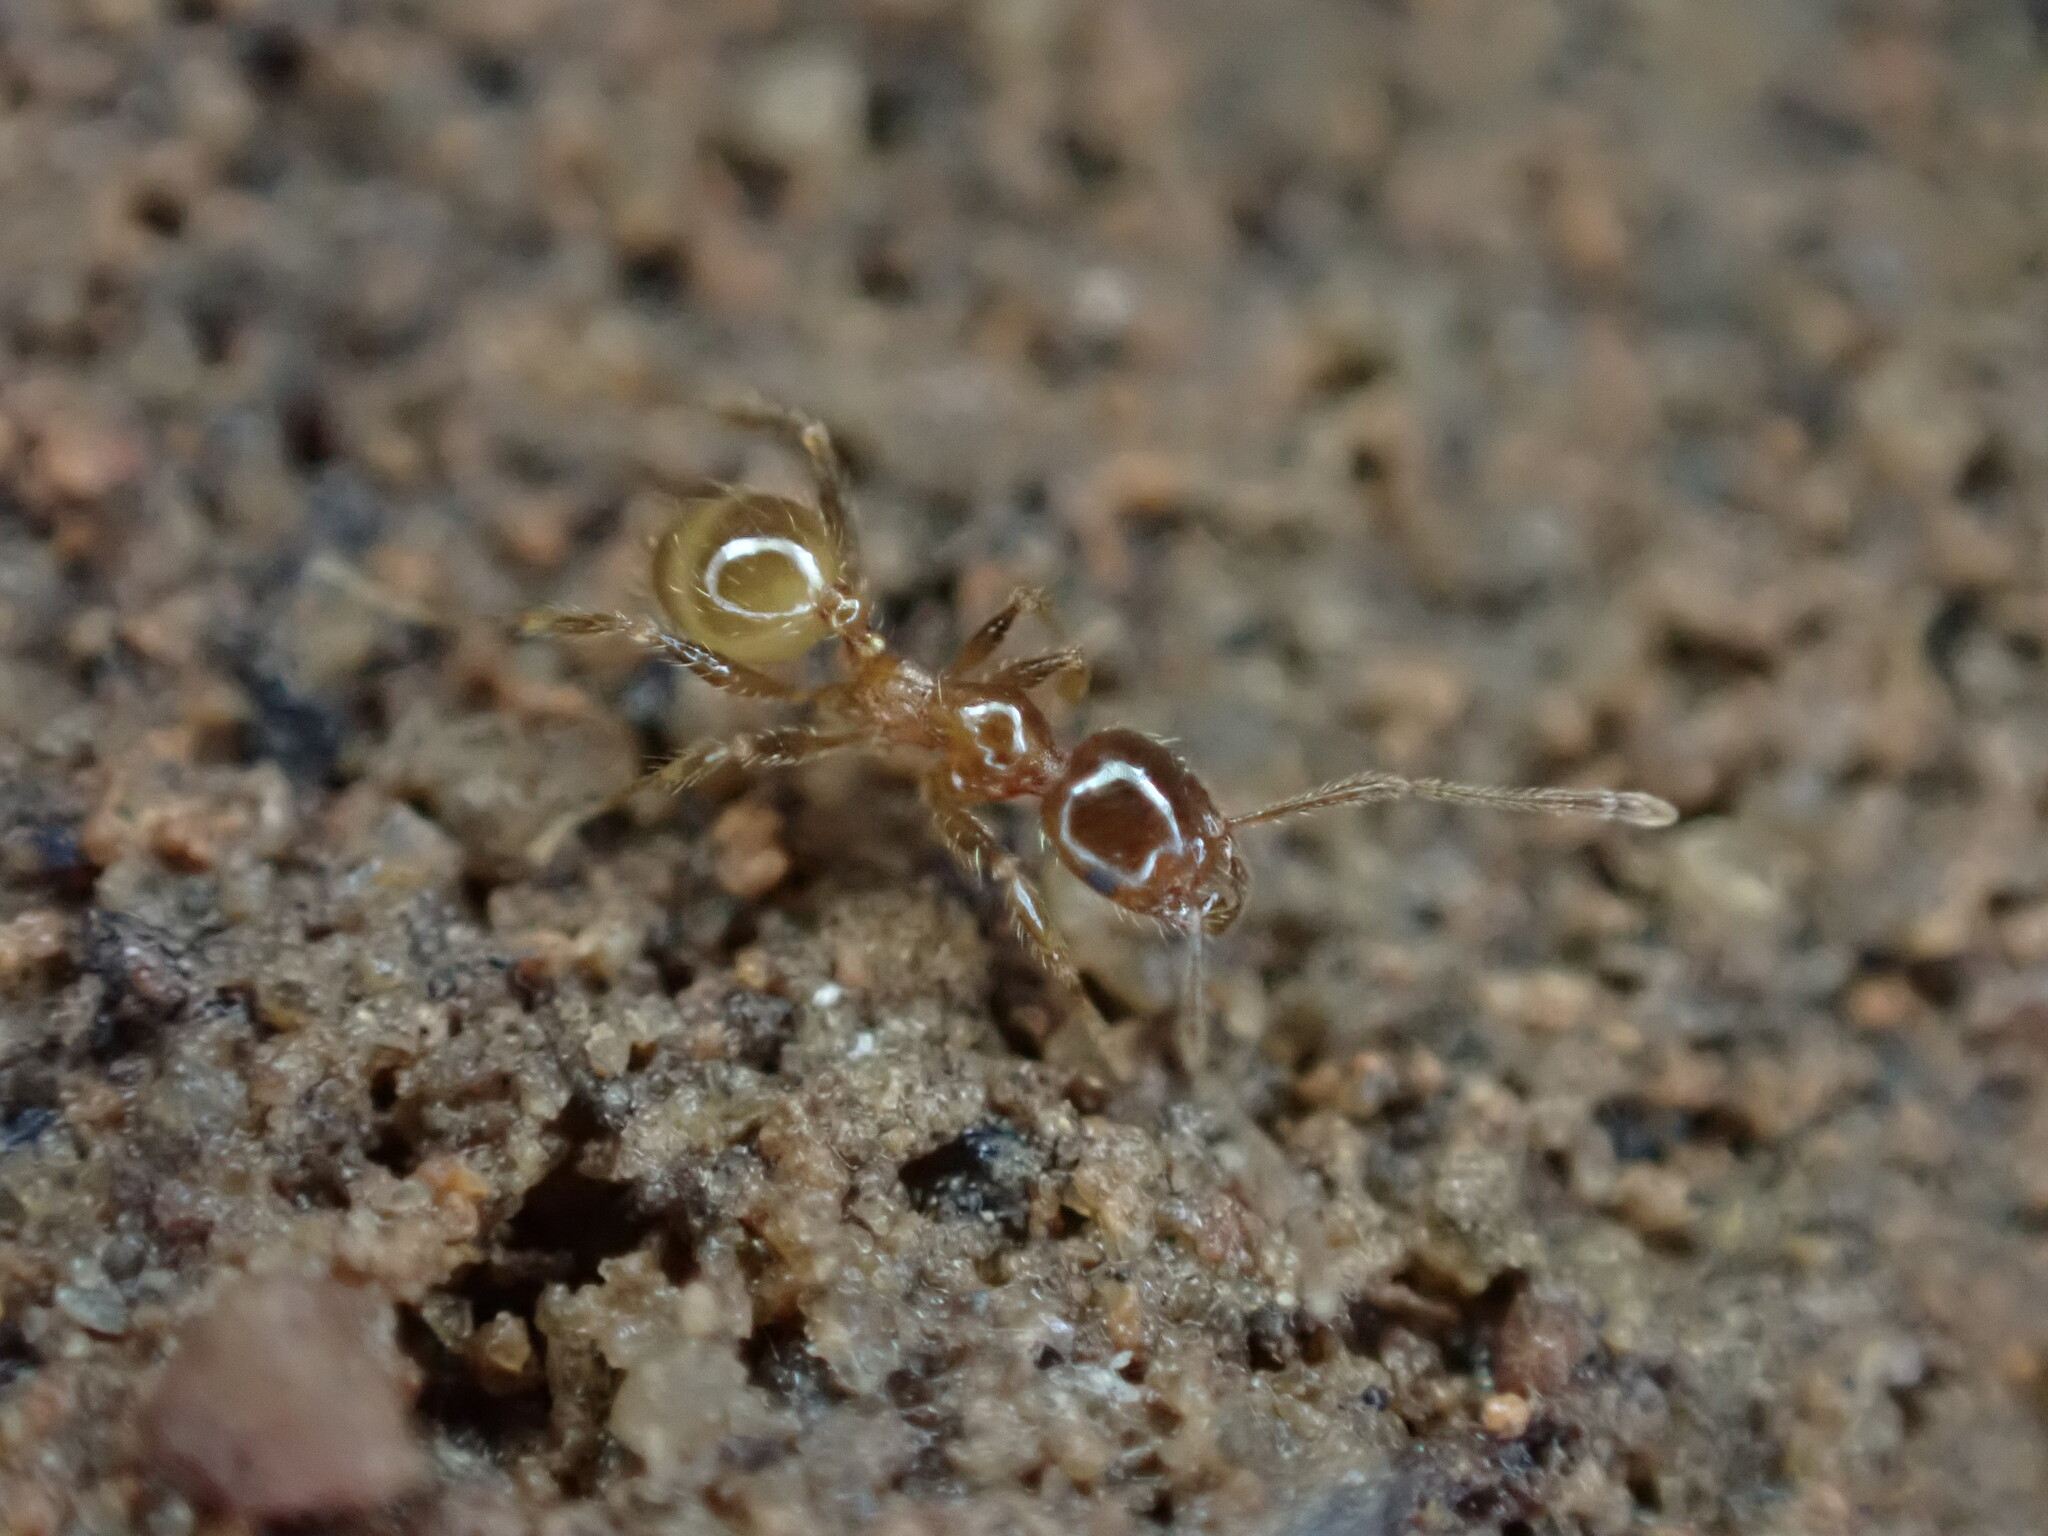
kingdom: Animalia
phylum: Arthropoda
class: Insecta
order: Hymenoptera
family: Formicidae
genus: Pheidole
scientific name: Pheidole pallidula
